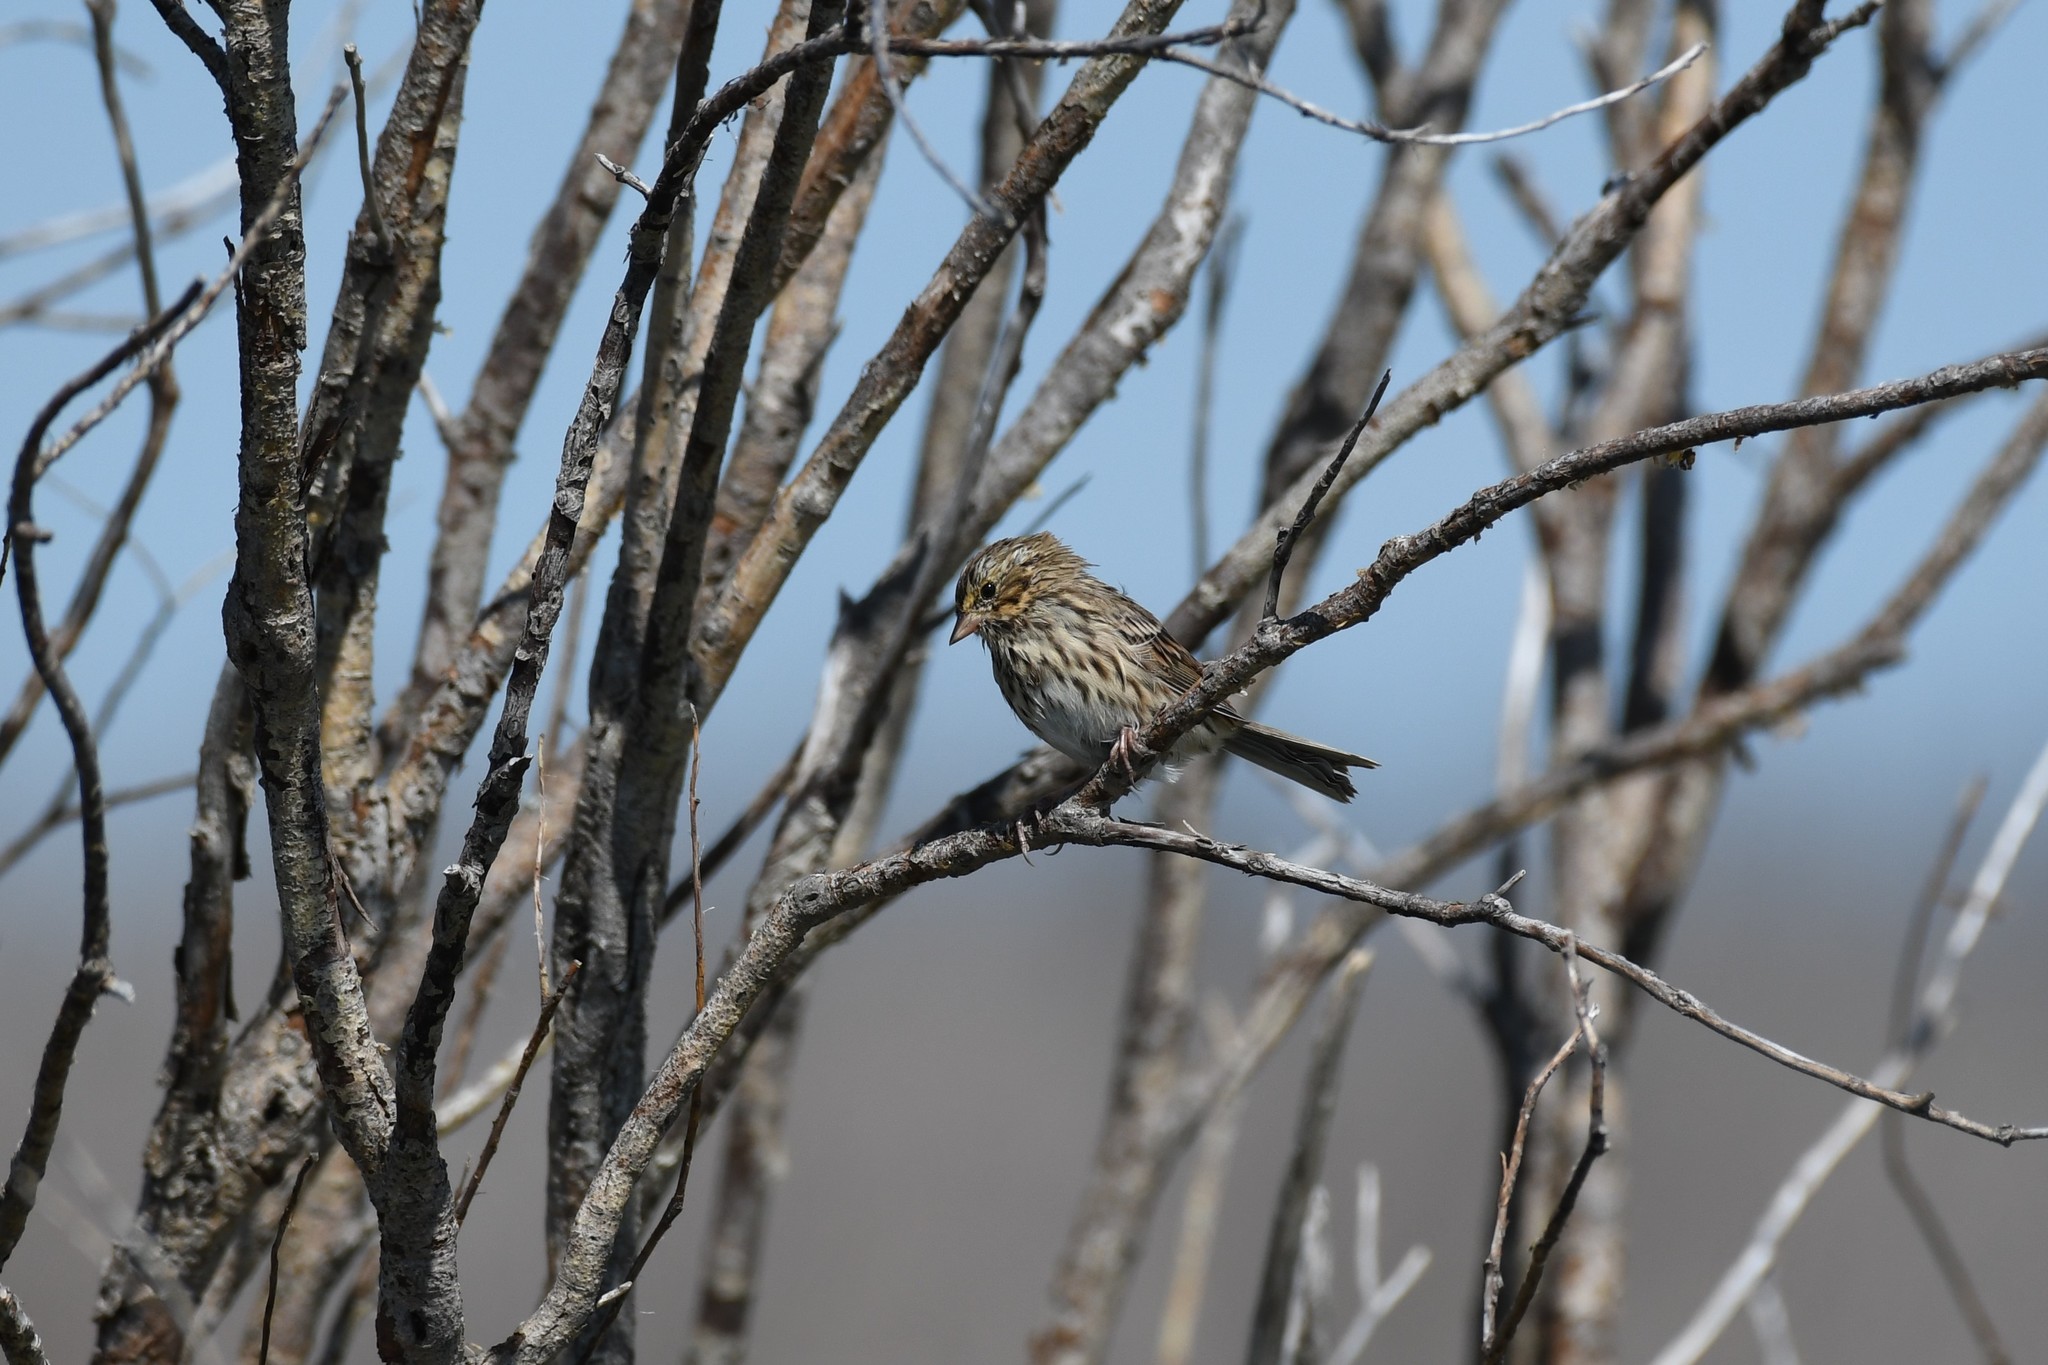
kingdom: Animalia
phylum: Chordata
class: Aves
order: Passeriformes
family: Passerellidae
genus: Passerculus
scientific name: Passerculus sandwichensis
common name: Savannah sparrow
